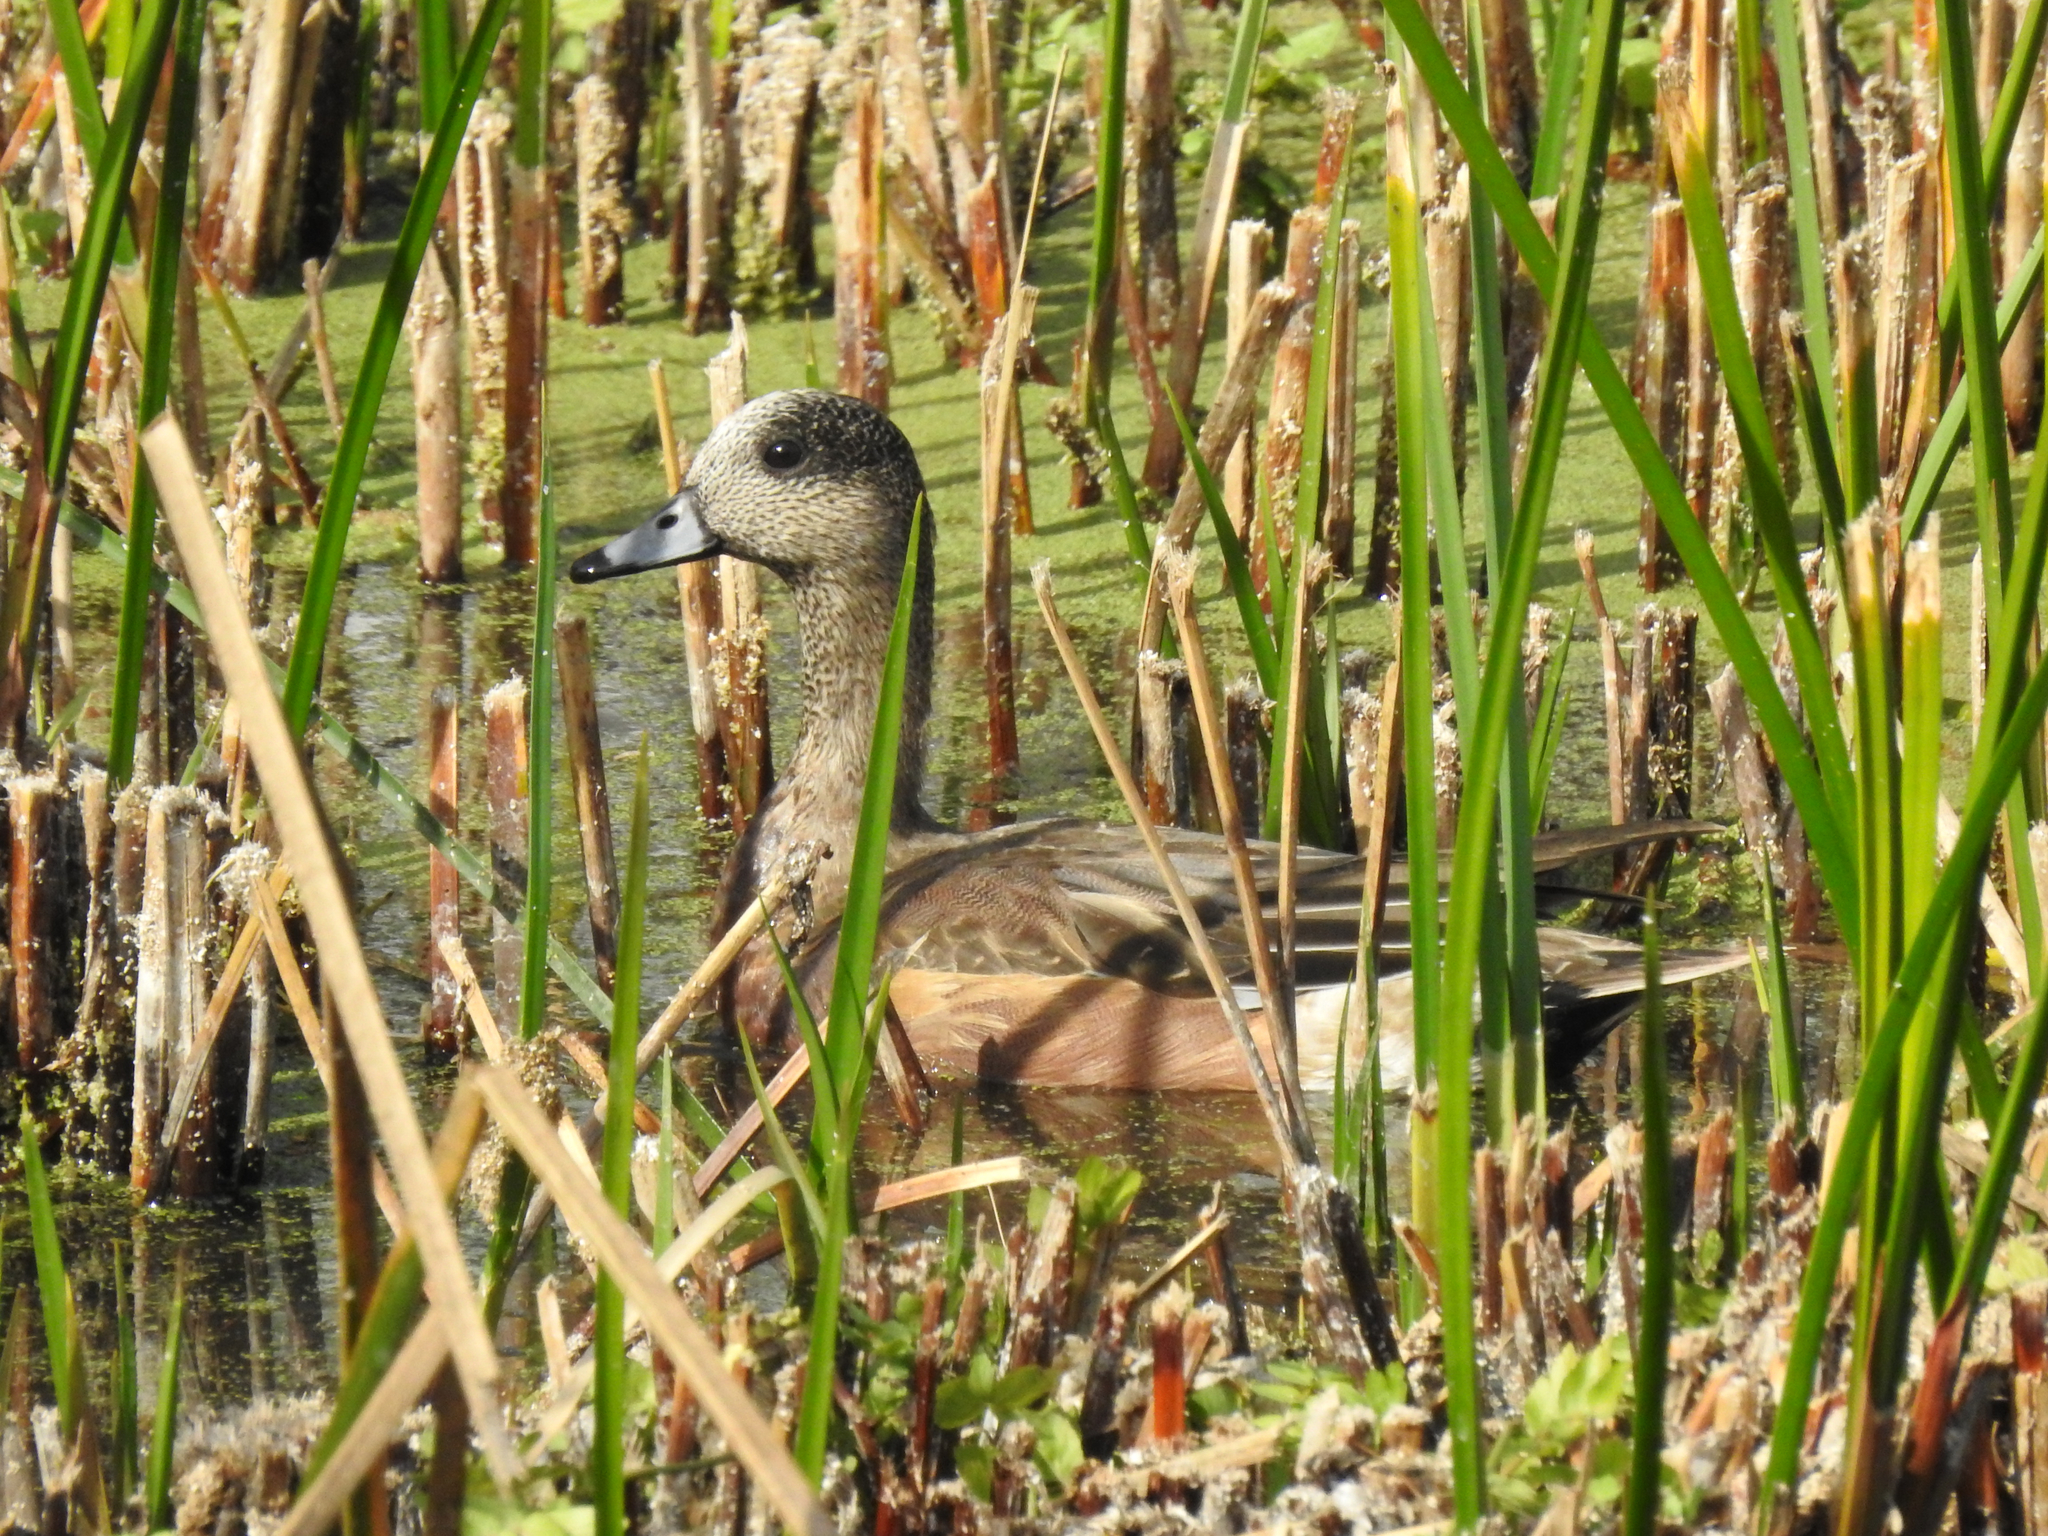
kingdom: Animalia
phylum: Chordata
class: Aves
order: Anseriformes
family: Anatidae
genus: Mareca
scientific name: Mareca americana
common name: American wigeon
